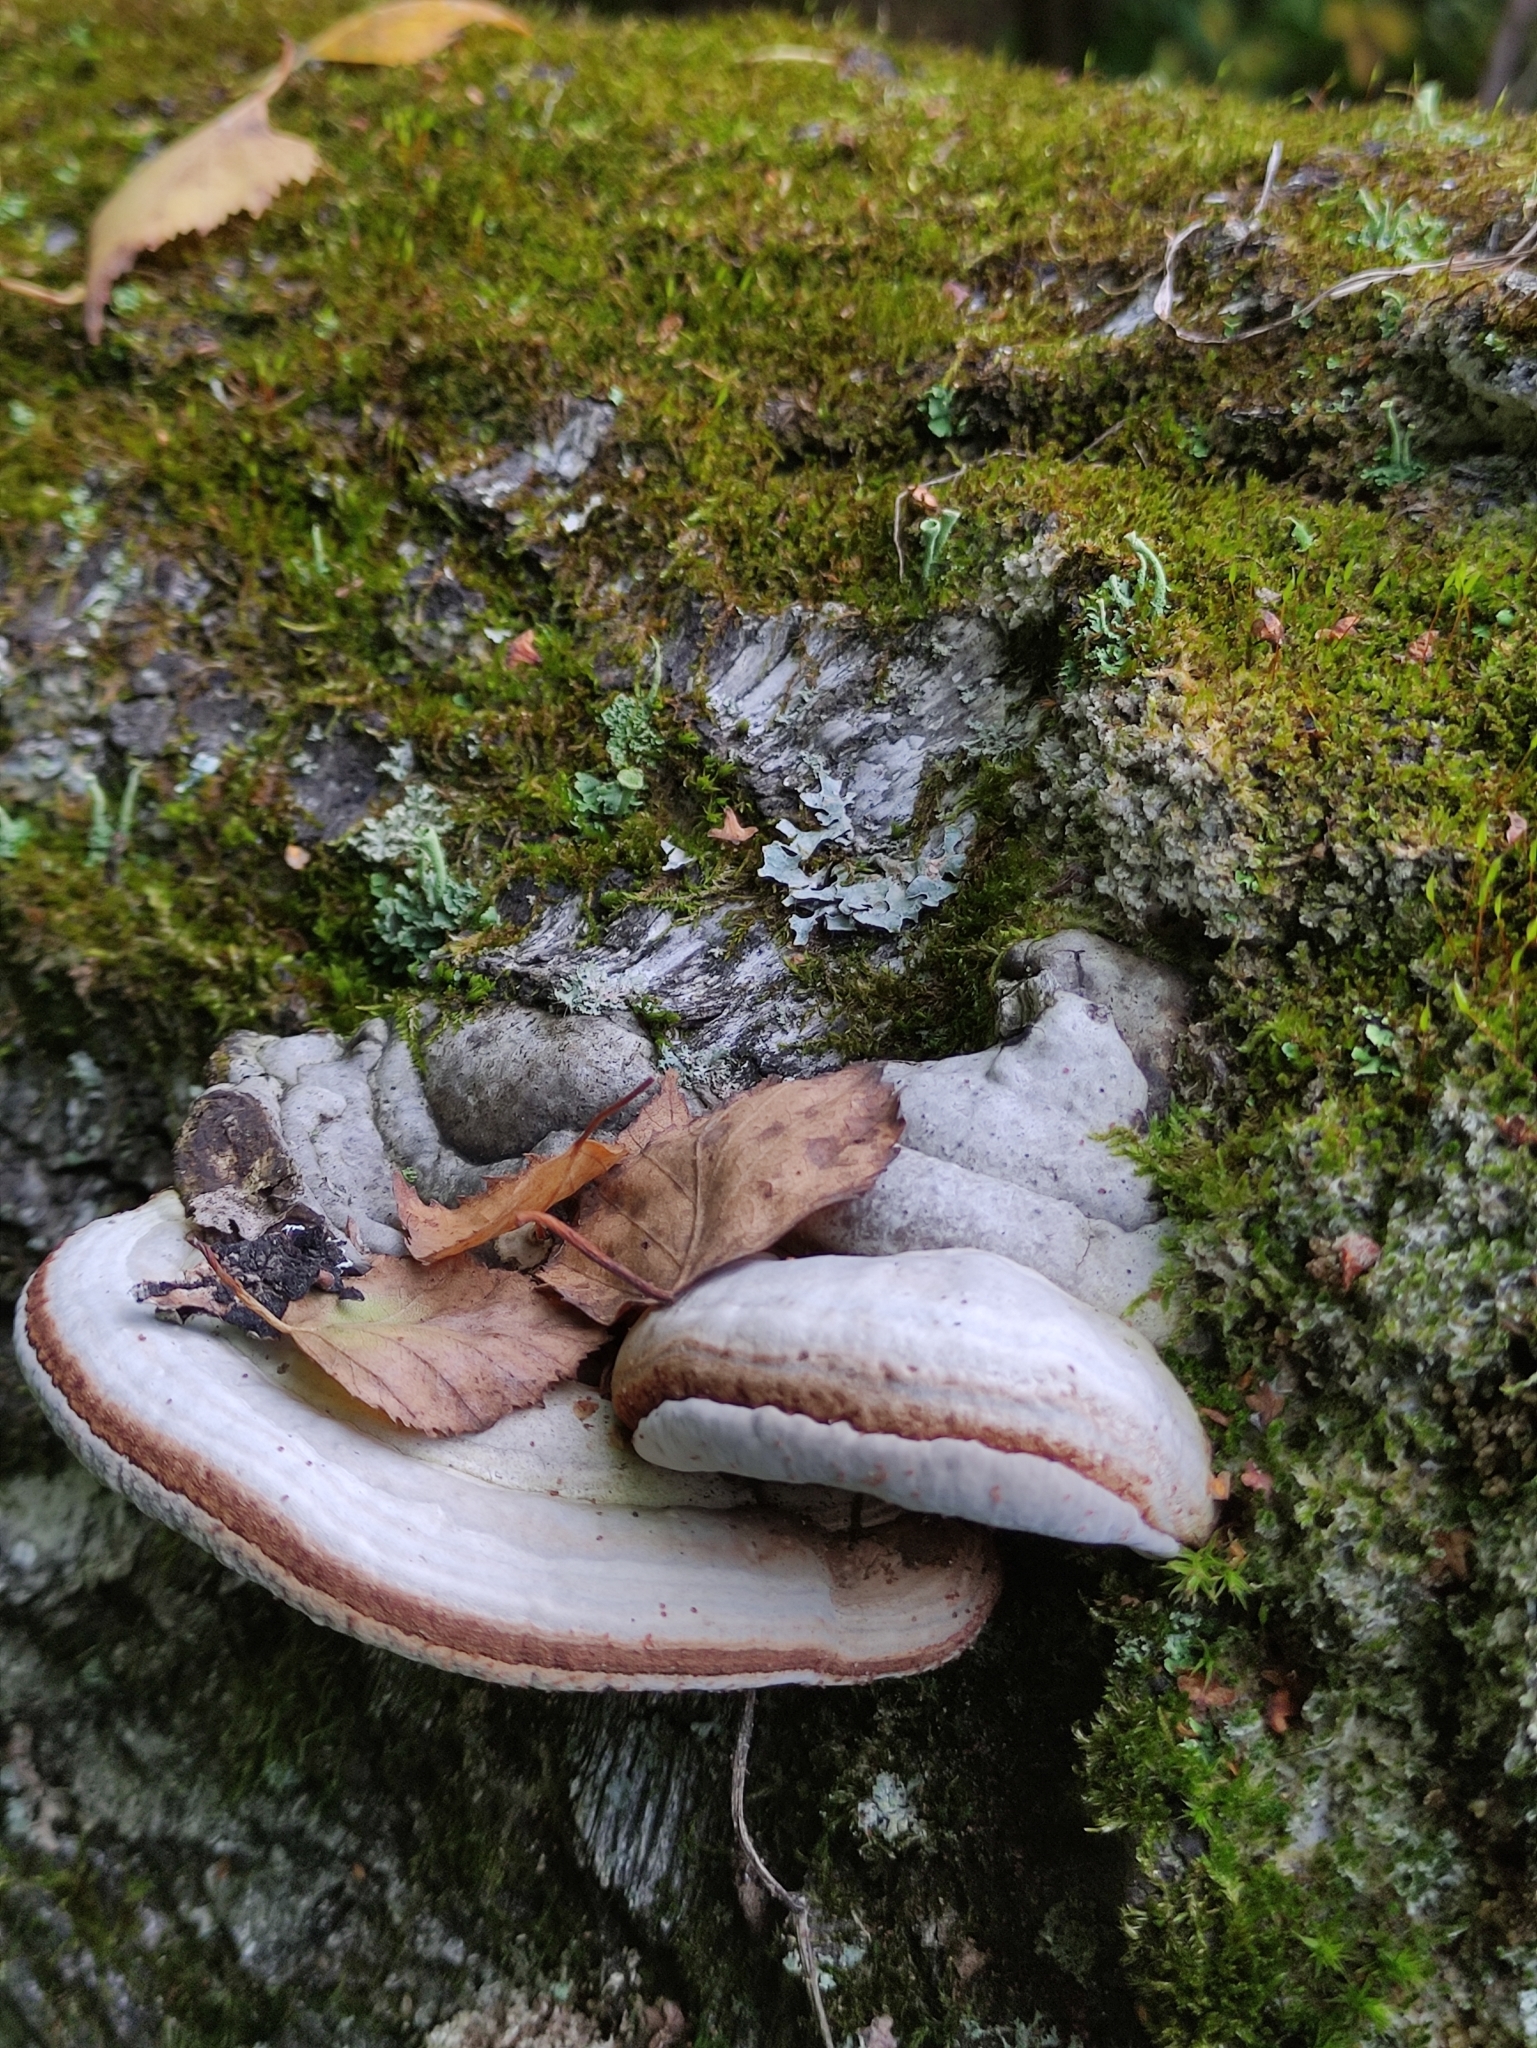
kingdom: Fungi
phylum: Basidiomycota
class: Agaricomycetes
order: Polyporales
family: Polyporaceae
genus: Fomes
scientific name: Fomes fomentarius
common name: Hoof fungus
